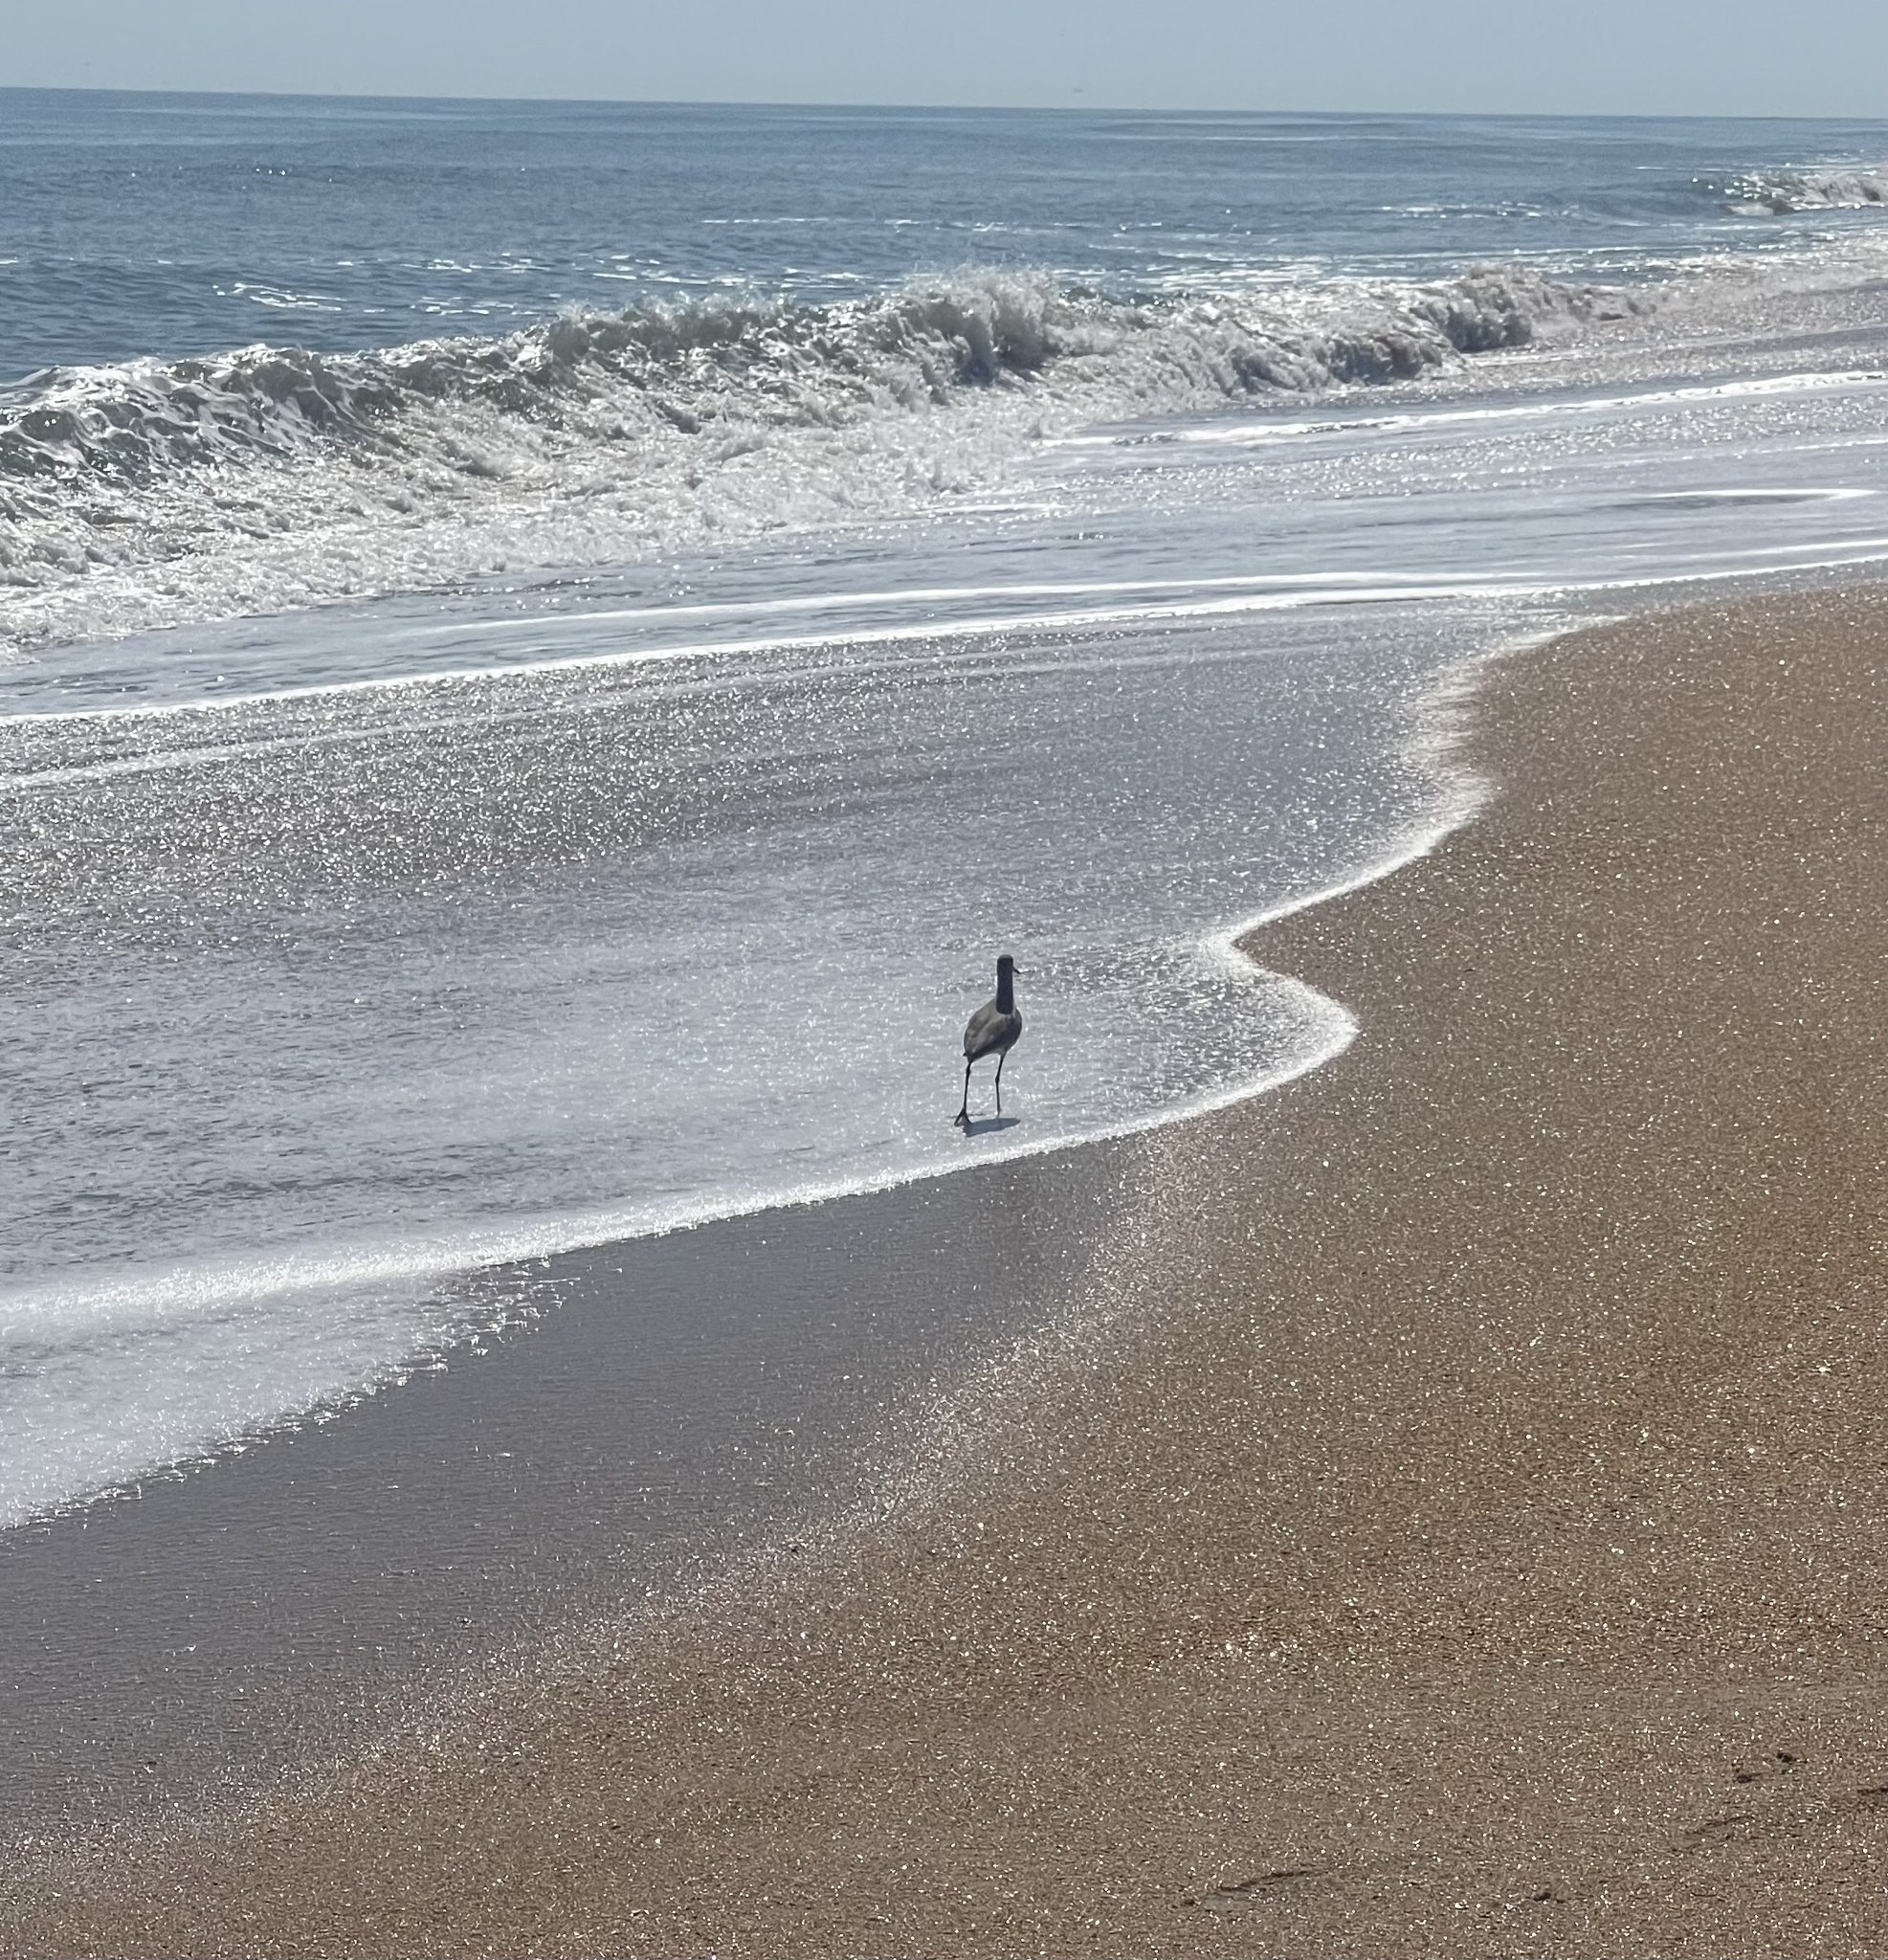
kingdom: Animalia
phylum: Chordata
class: Aves
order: Charadriiformes
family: Scolopacidae
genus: Tringa
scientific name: Tringa semipalmata
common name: Willet
